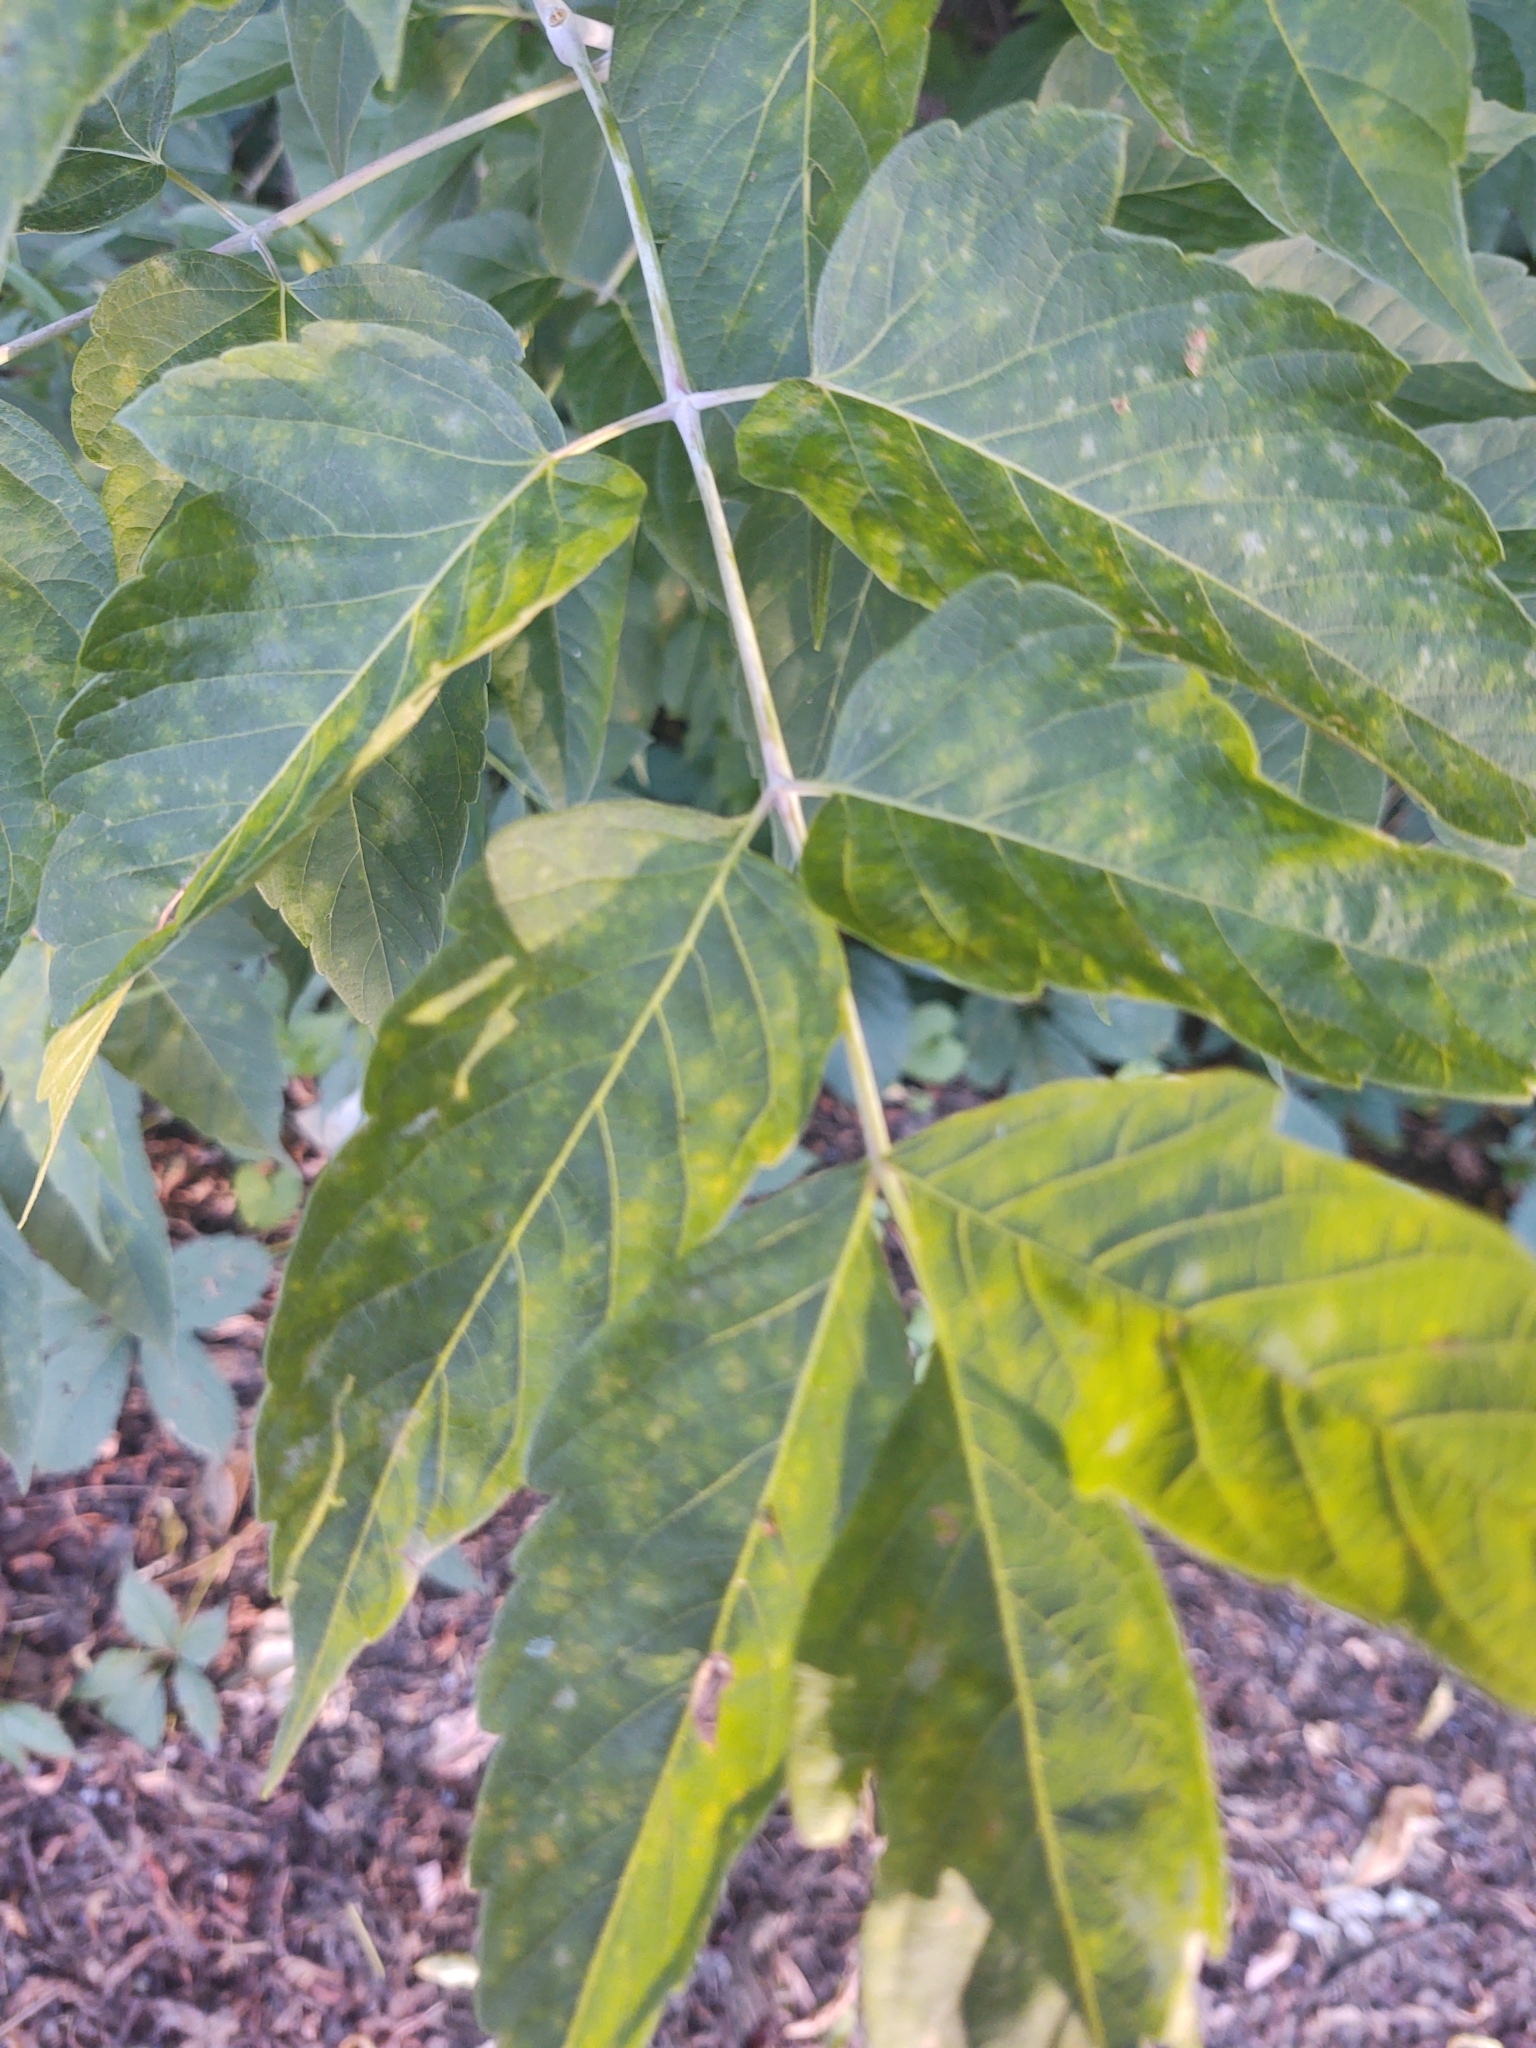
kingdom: Plantae
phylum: Tracheophyta
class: Magnoliopsida
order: Sapindales
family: Sapindaceae
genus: Acer
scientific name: Acer negundo
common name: Ashleaf maple
